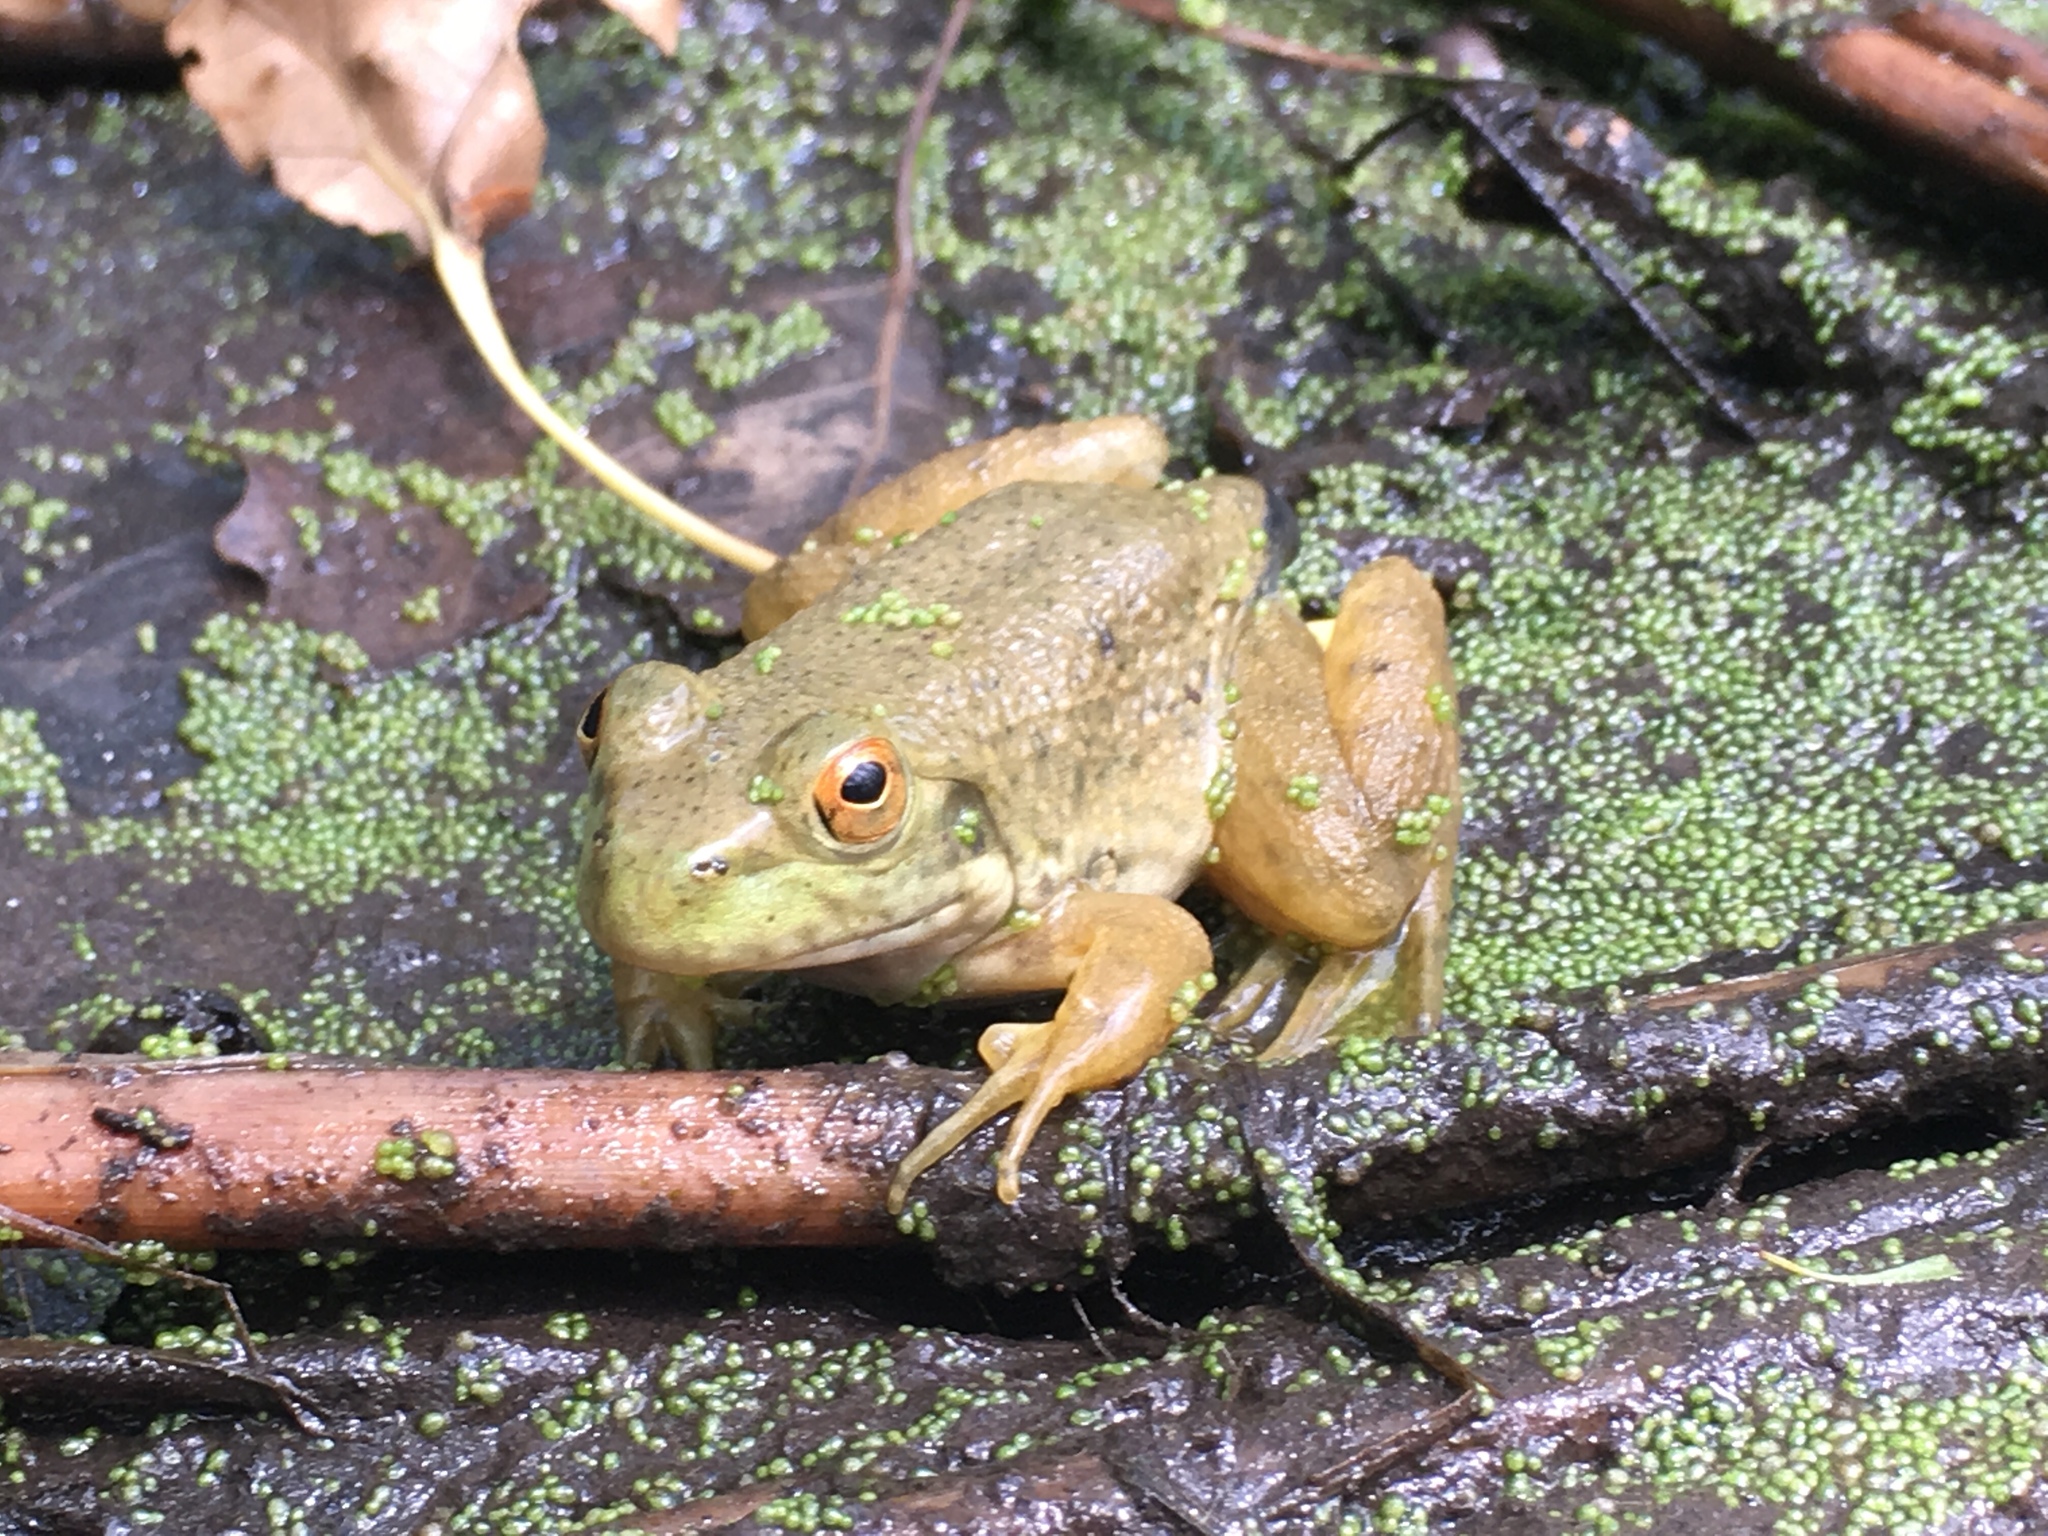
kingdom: Animalia
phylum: Chordata
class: Amphibia
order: Anura
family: Ranidae
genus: Lithobates
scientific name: Lithobates catesbeianus
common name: American bullfrog
